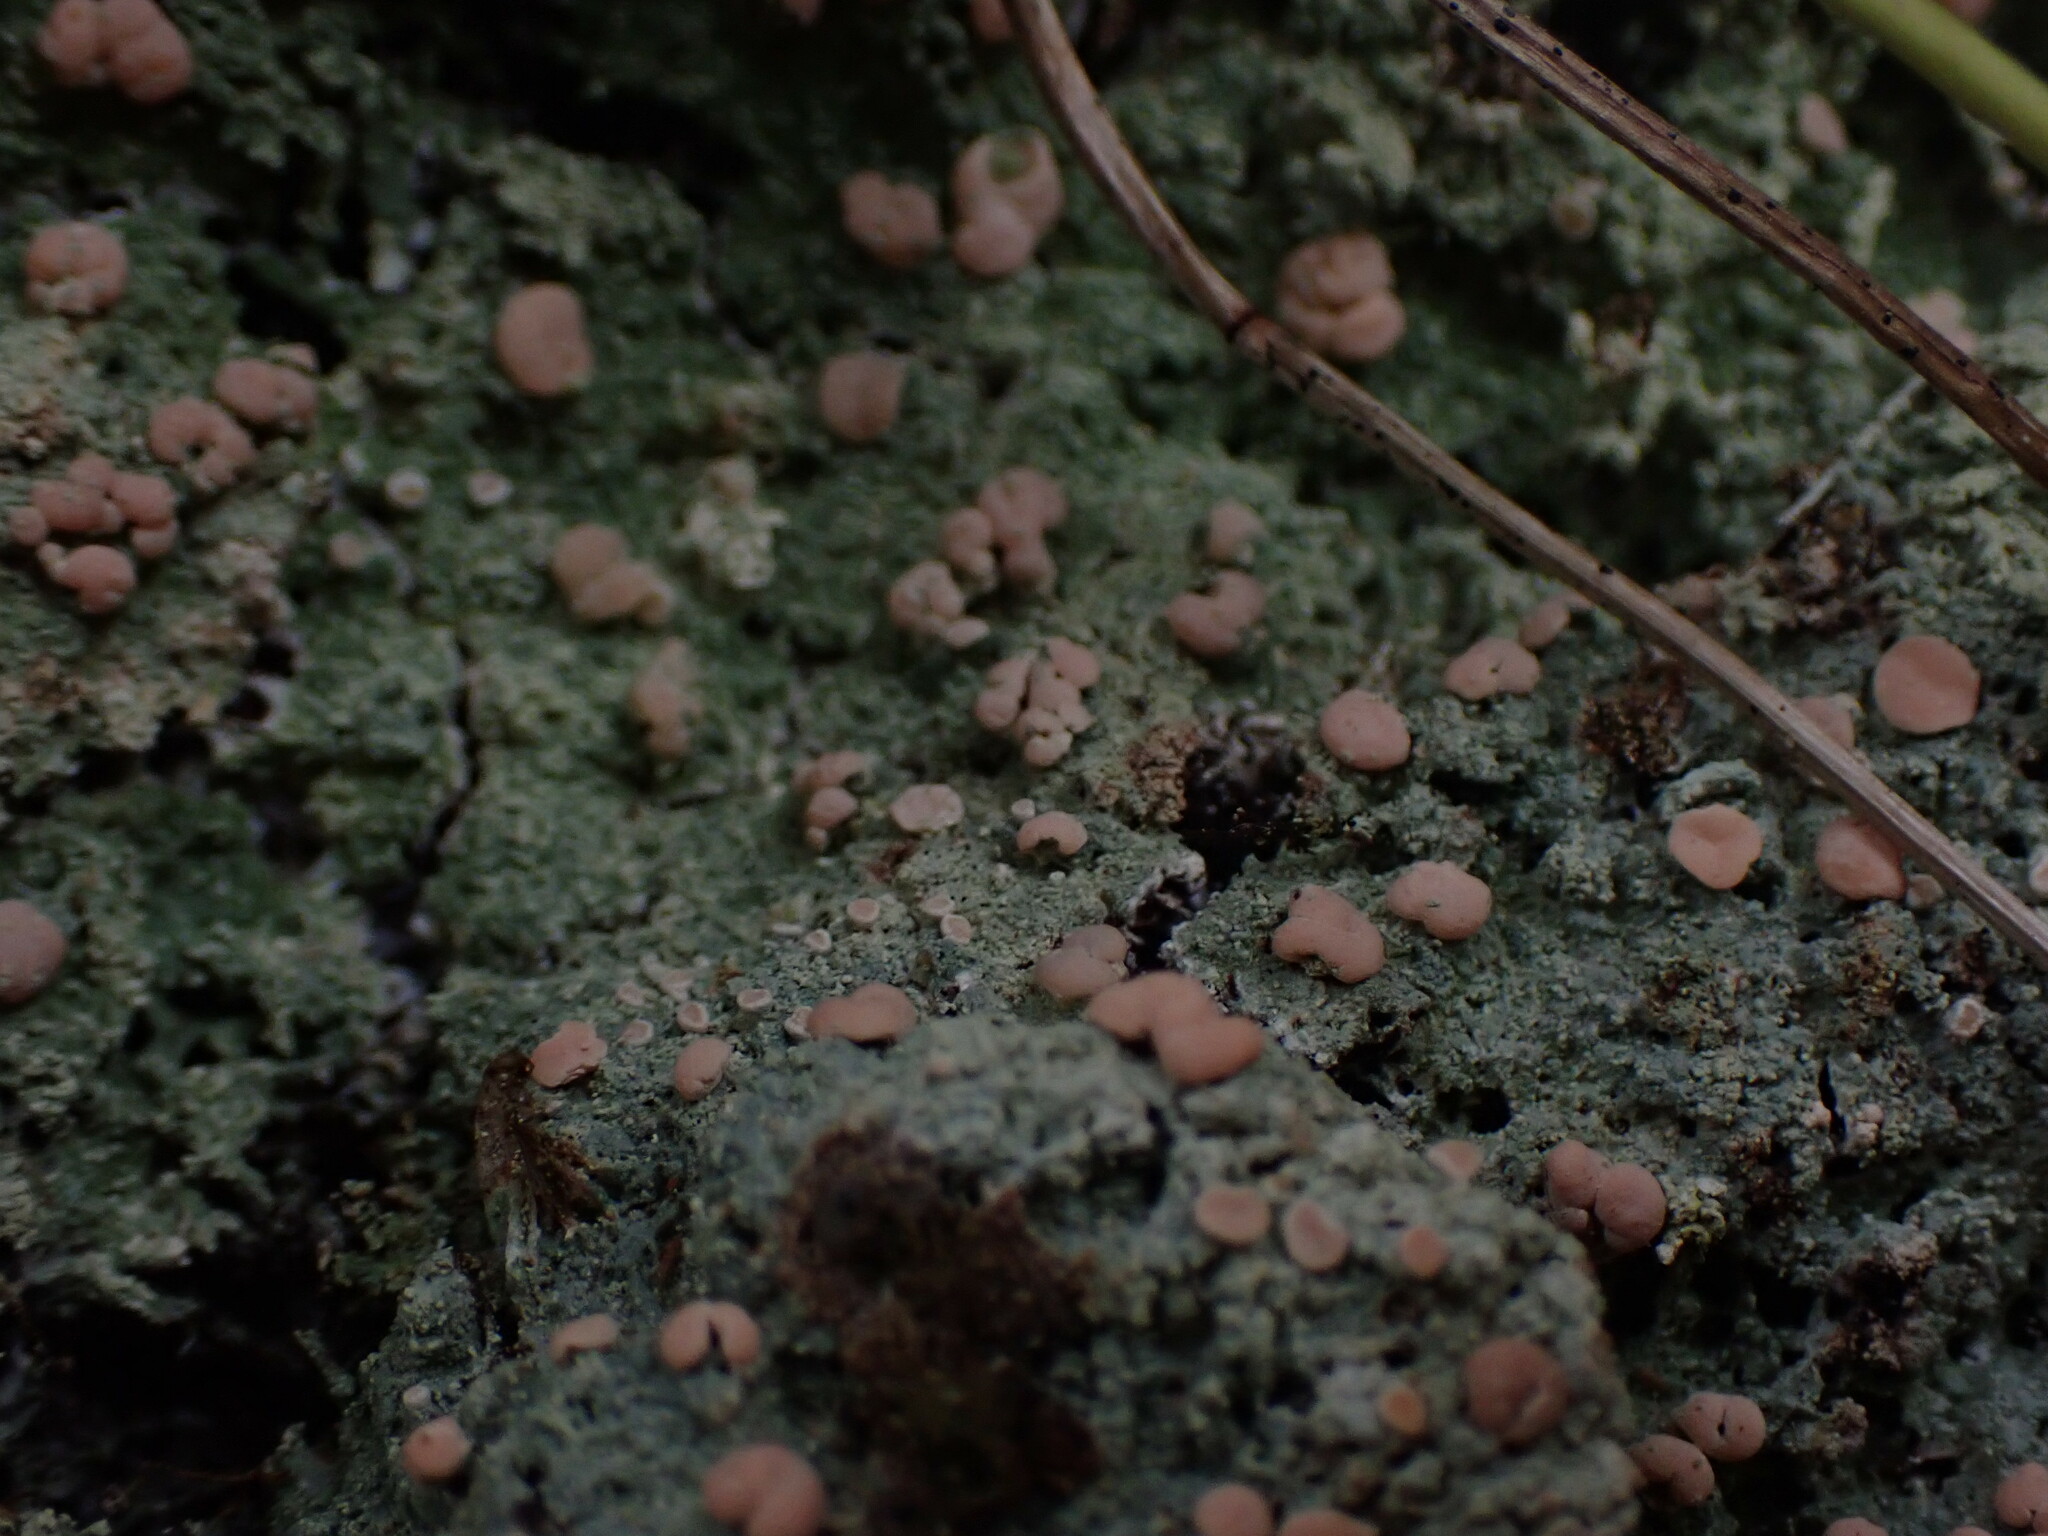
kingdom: Fungi
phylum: Ascomycota
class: Lecanoromycetes
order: Pertusariales
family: Icmadophilaceae
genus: Icmadophila
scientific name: Icmadophila ericetorum
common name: Candy lichen
